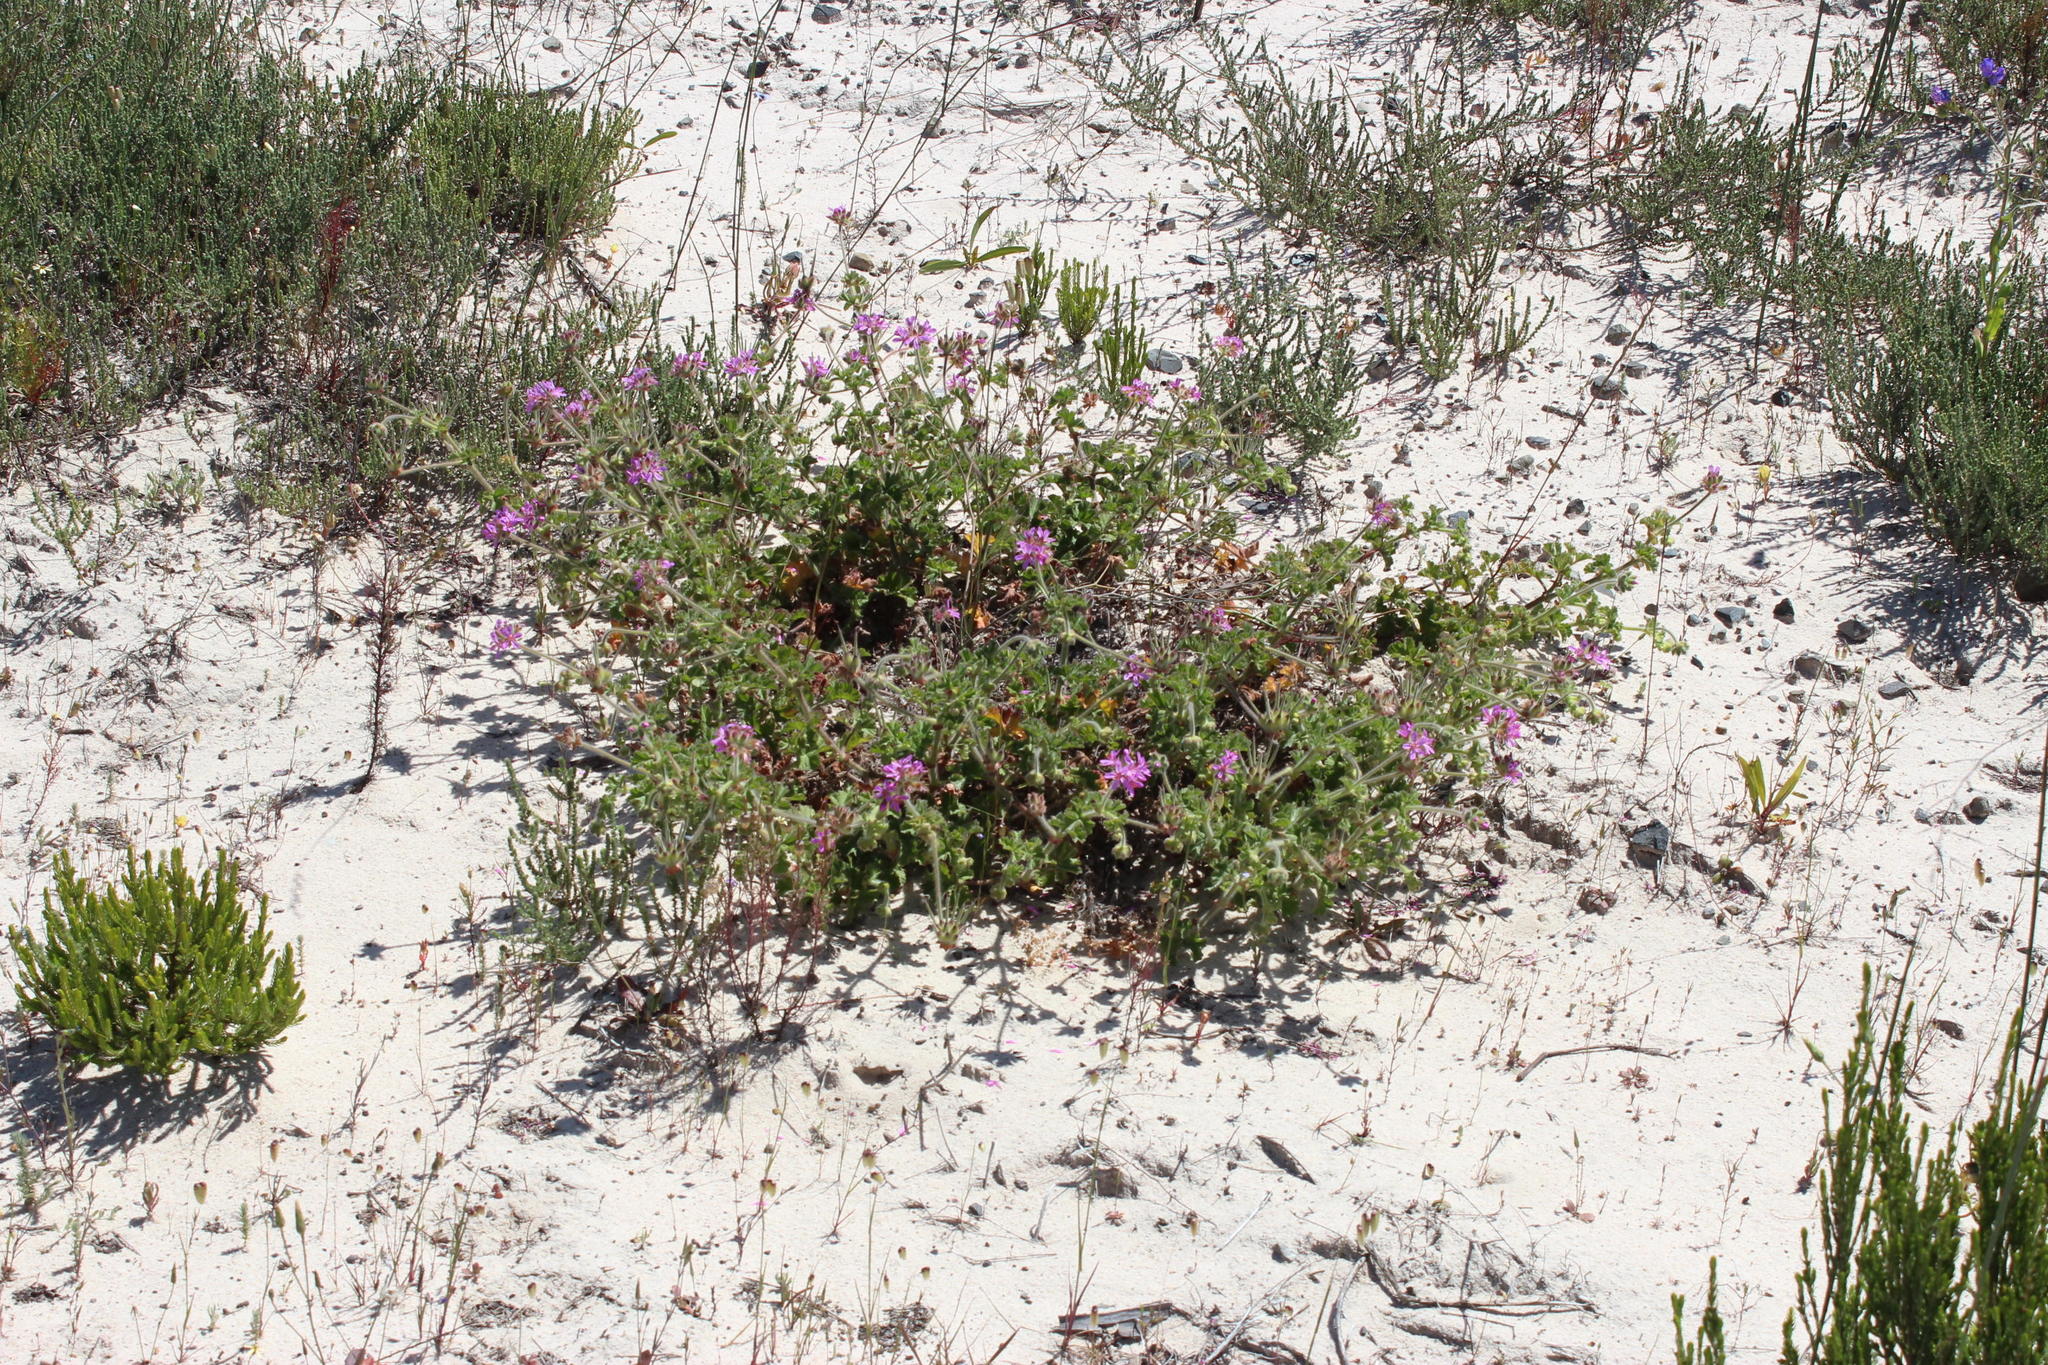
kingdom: Plantae
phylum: Tracheophyta
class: Magnoliopsida
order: Geraniales
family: Geraniaceae
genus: Pelargonium
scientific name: Pelargonium capitatum
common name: Rose scented geranium
